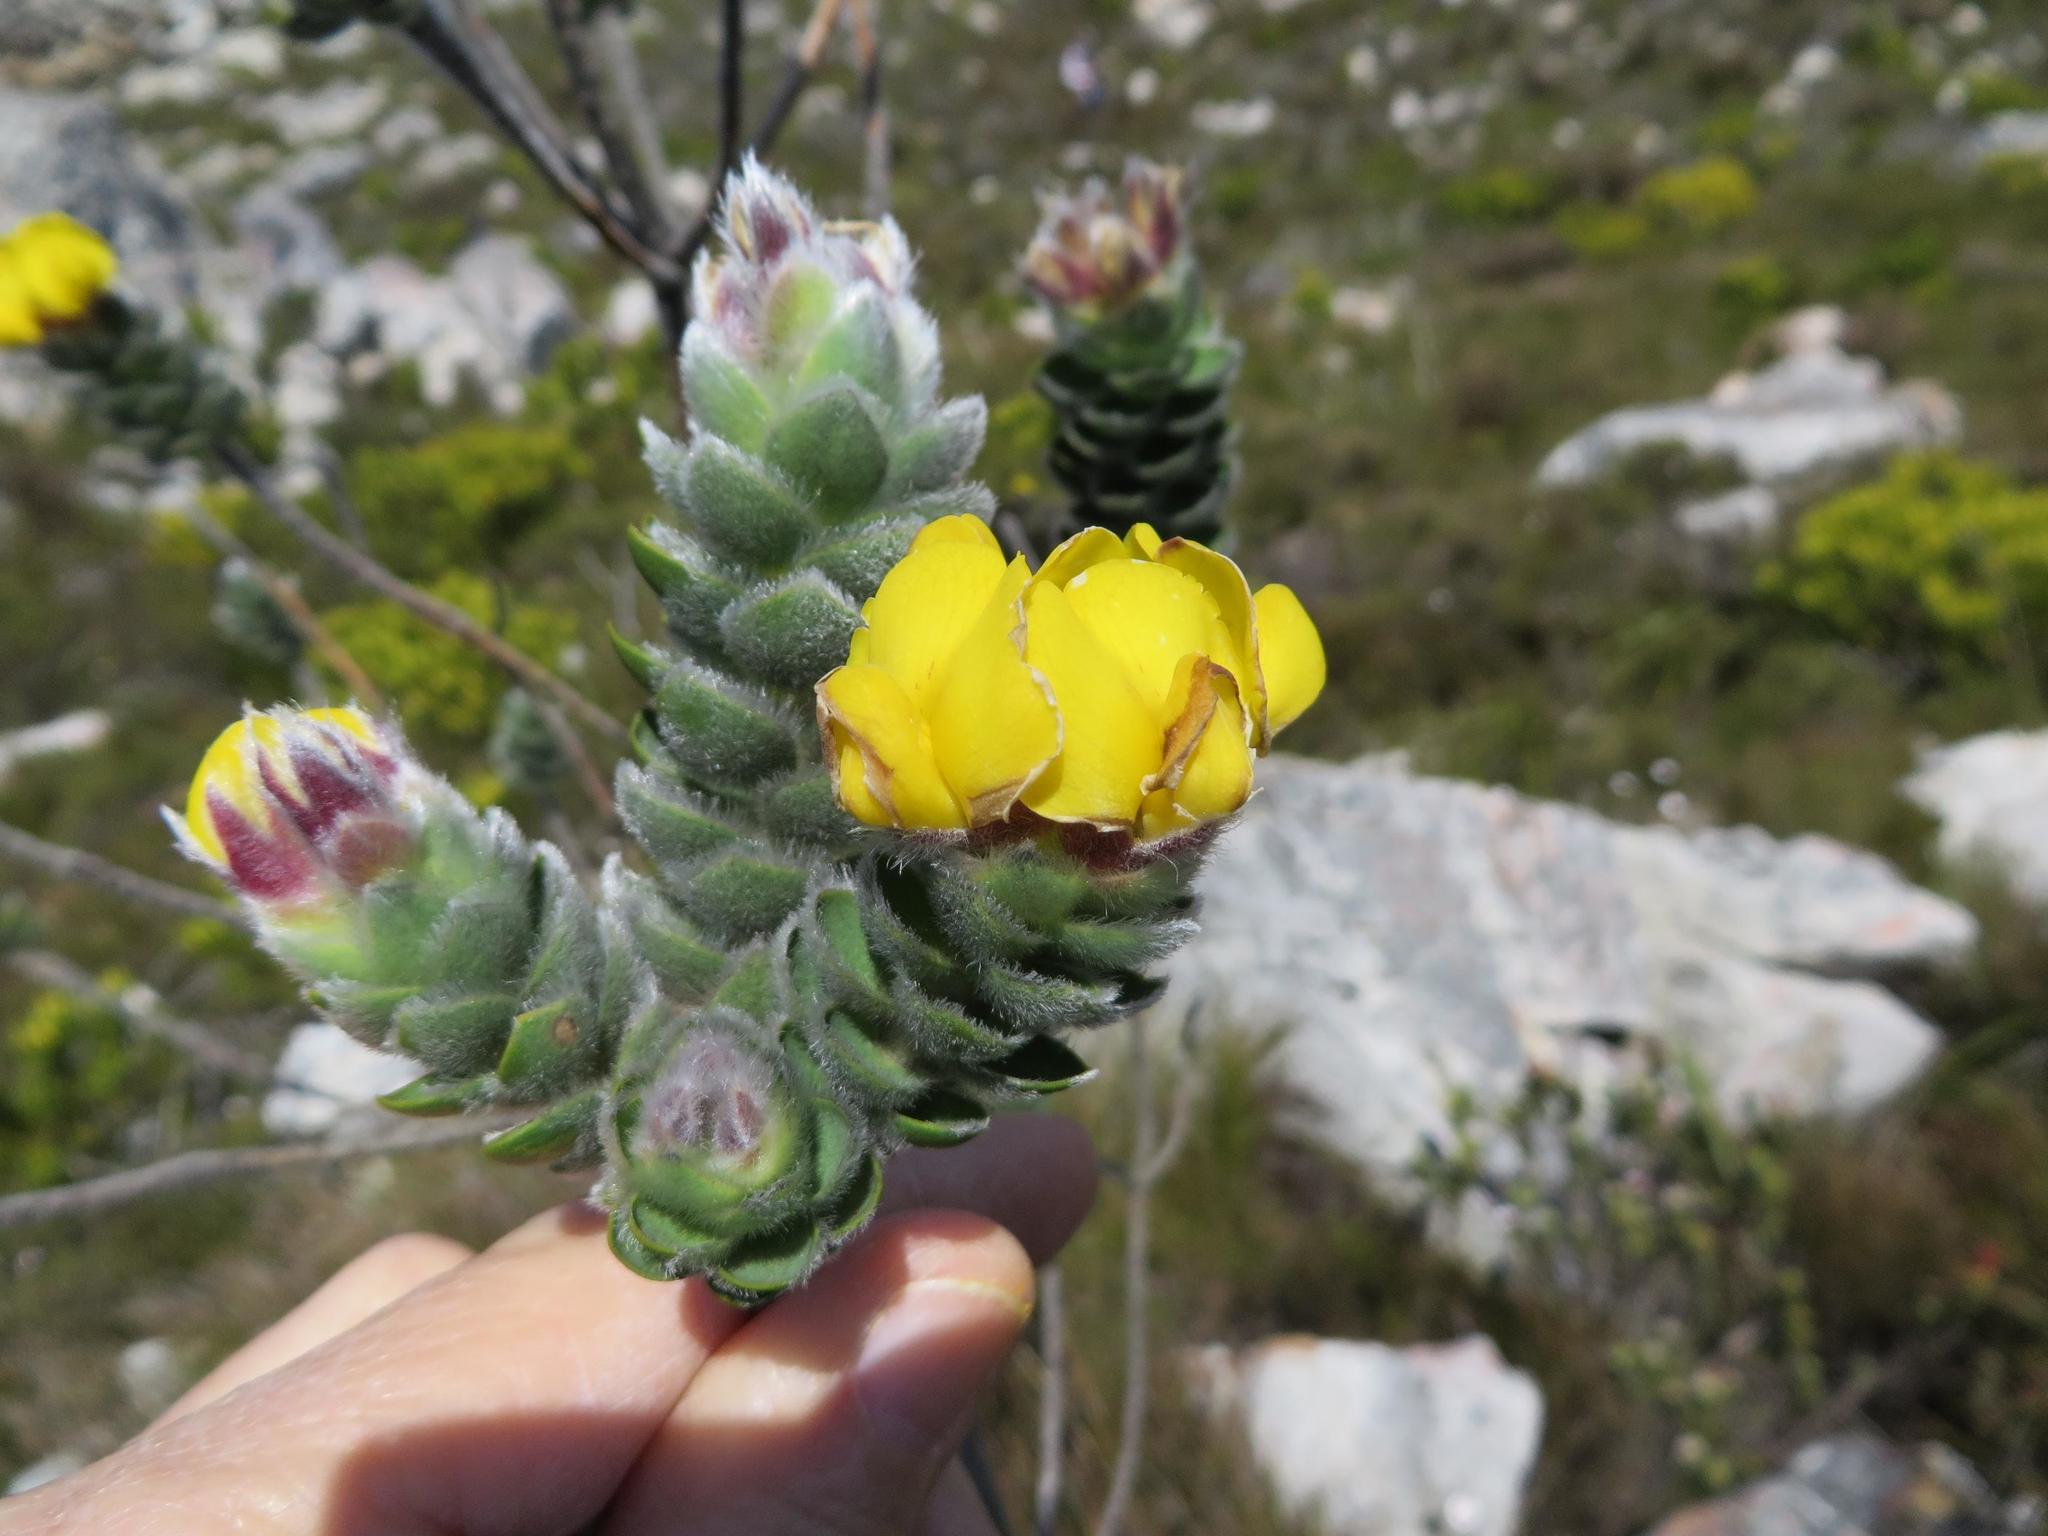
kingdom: Plantae
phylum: Tracheophyta
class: Magnoliopsida
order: Fabales
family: Fabaceae
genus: Liparia
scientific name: Liparia vestita
